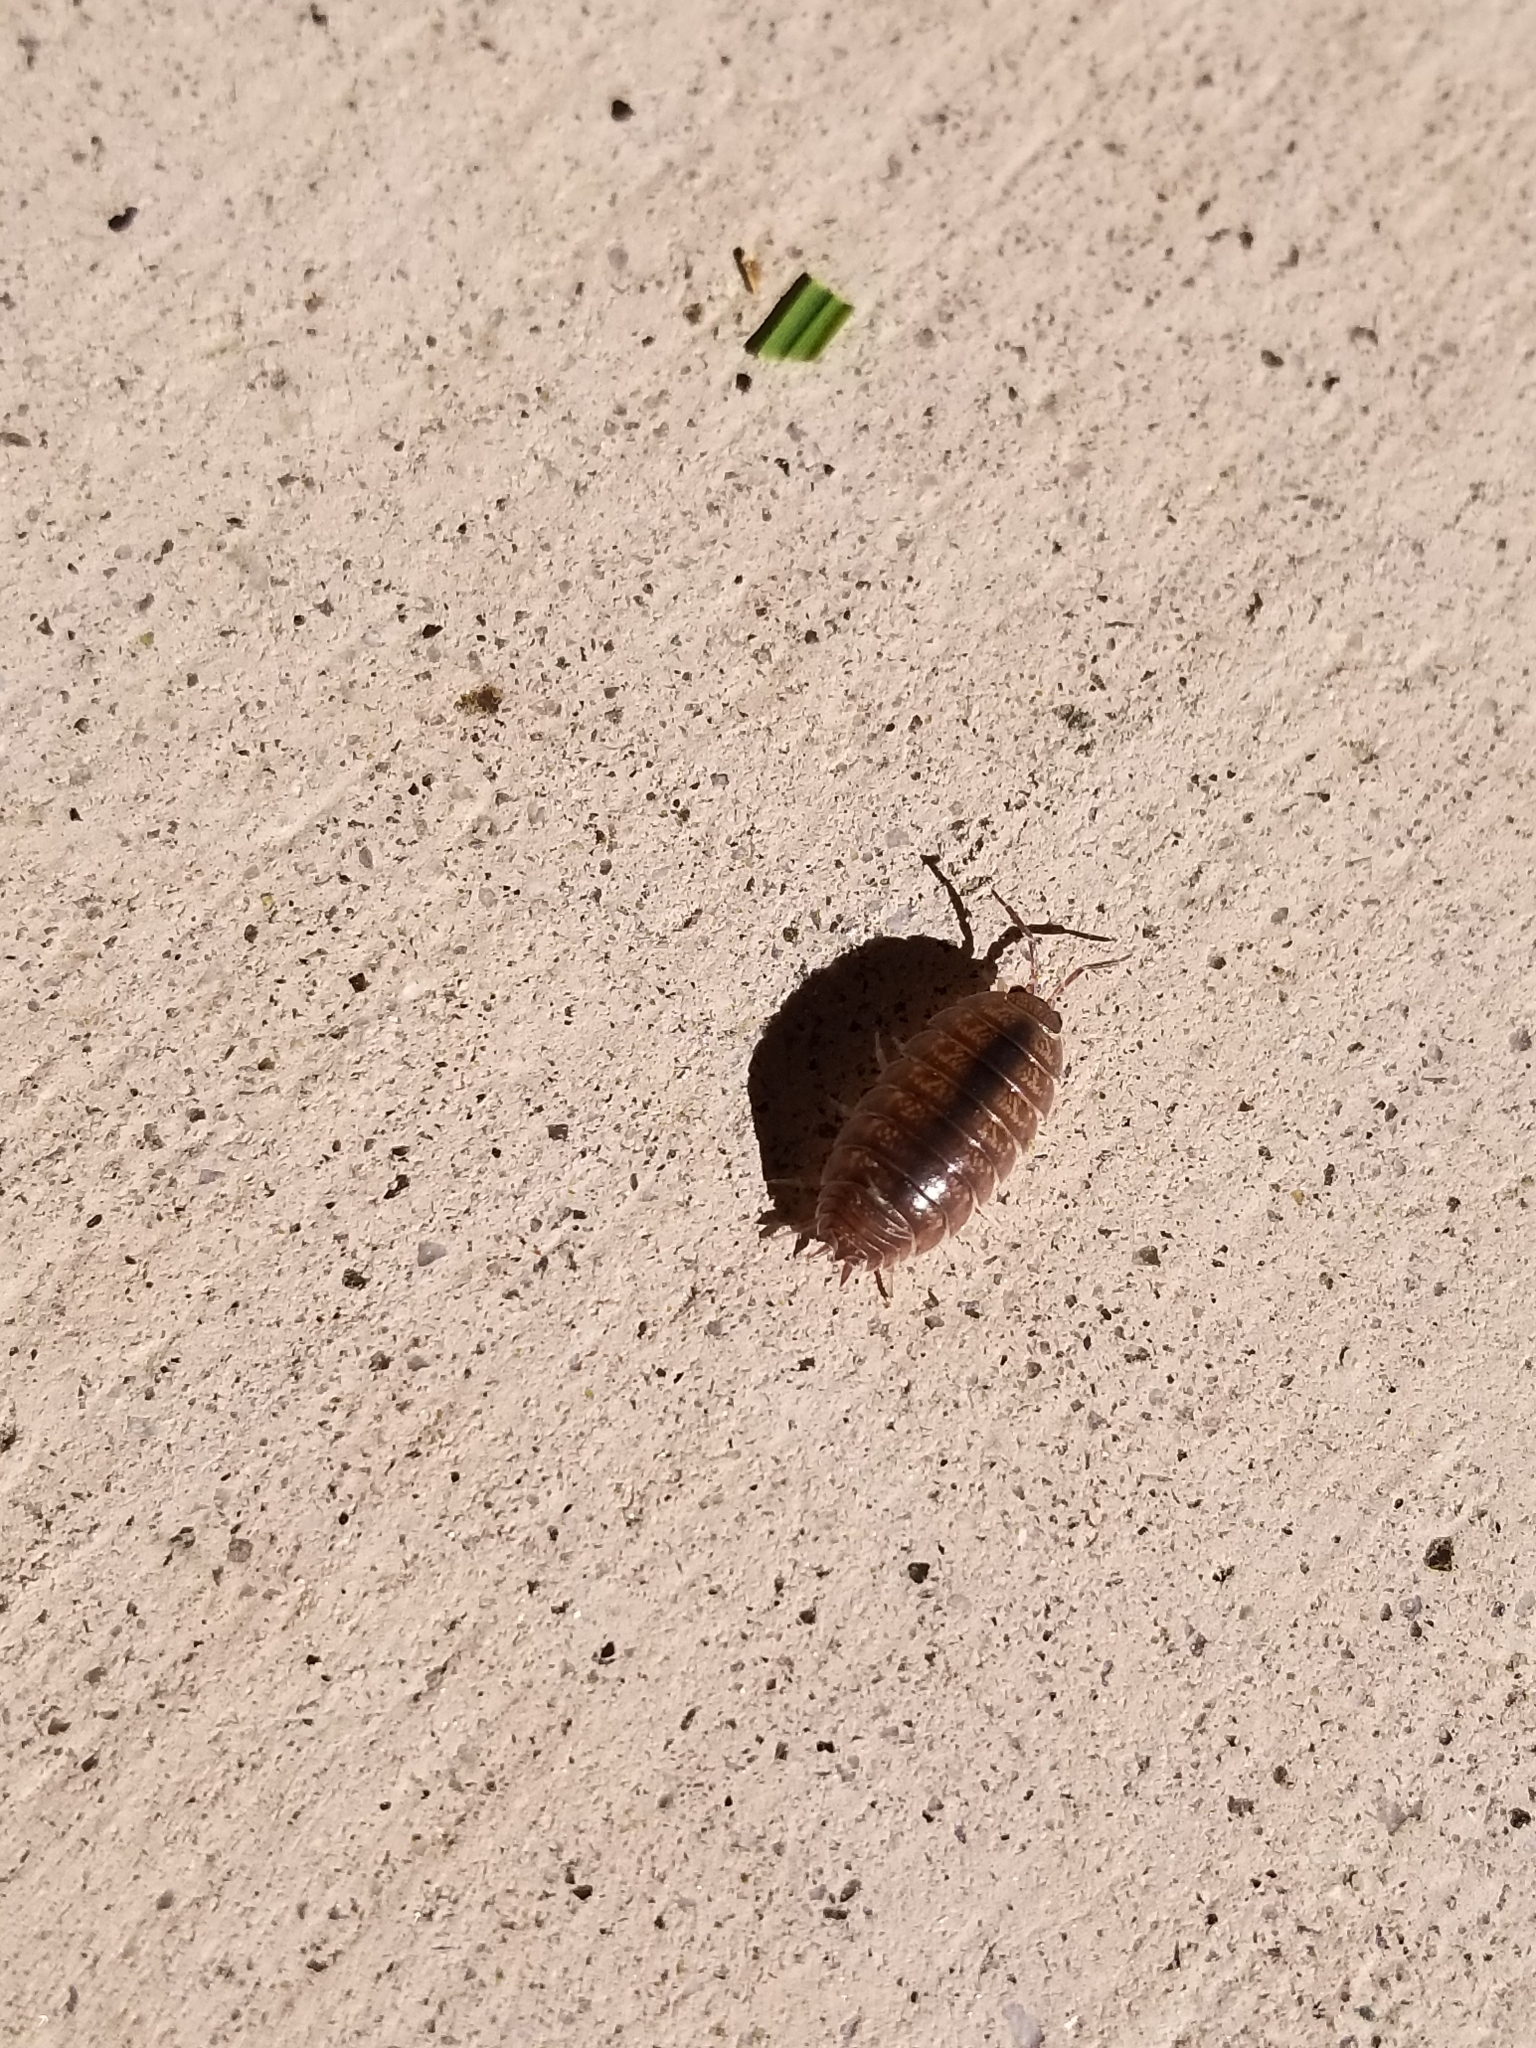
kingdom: Animalia
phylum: Arthropoda
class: Malacostraca
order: Isopoda
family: Porcellionidae
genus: Porcellio
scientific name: Porcellio laevis
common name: Swift woodlouse
